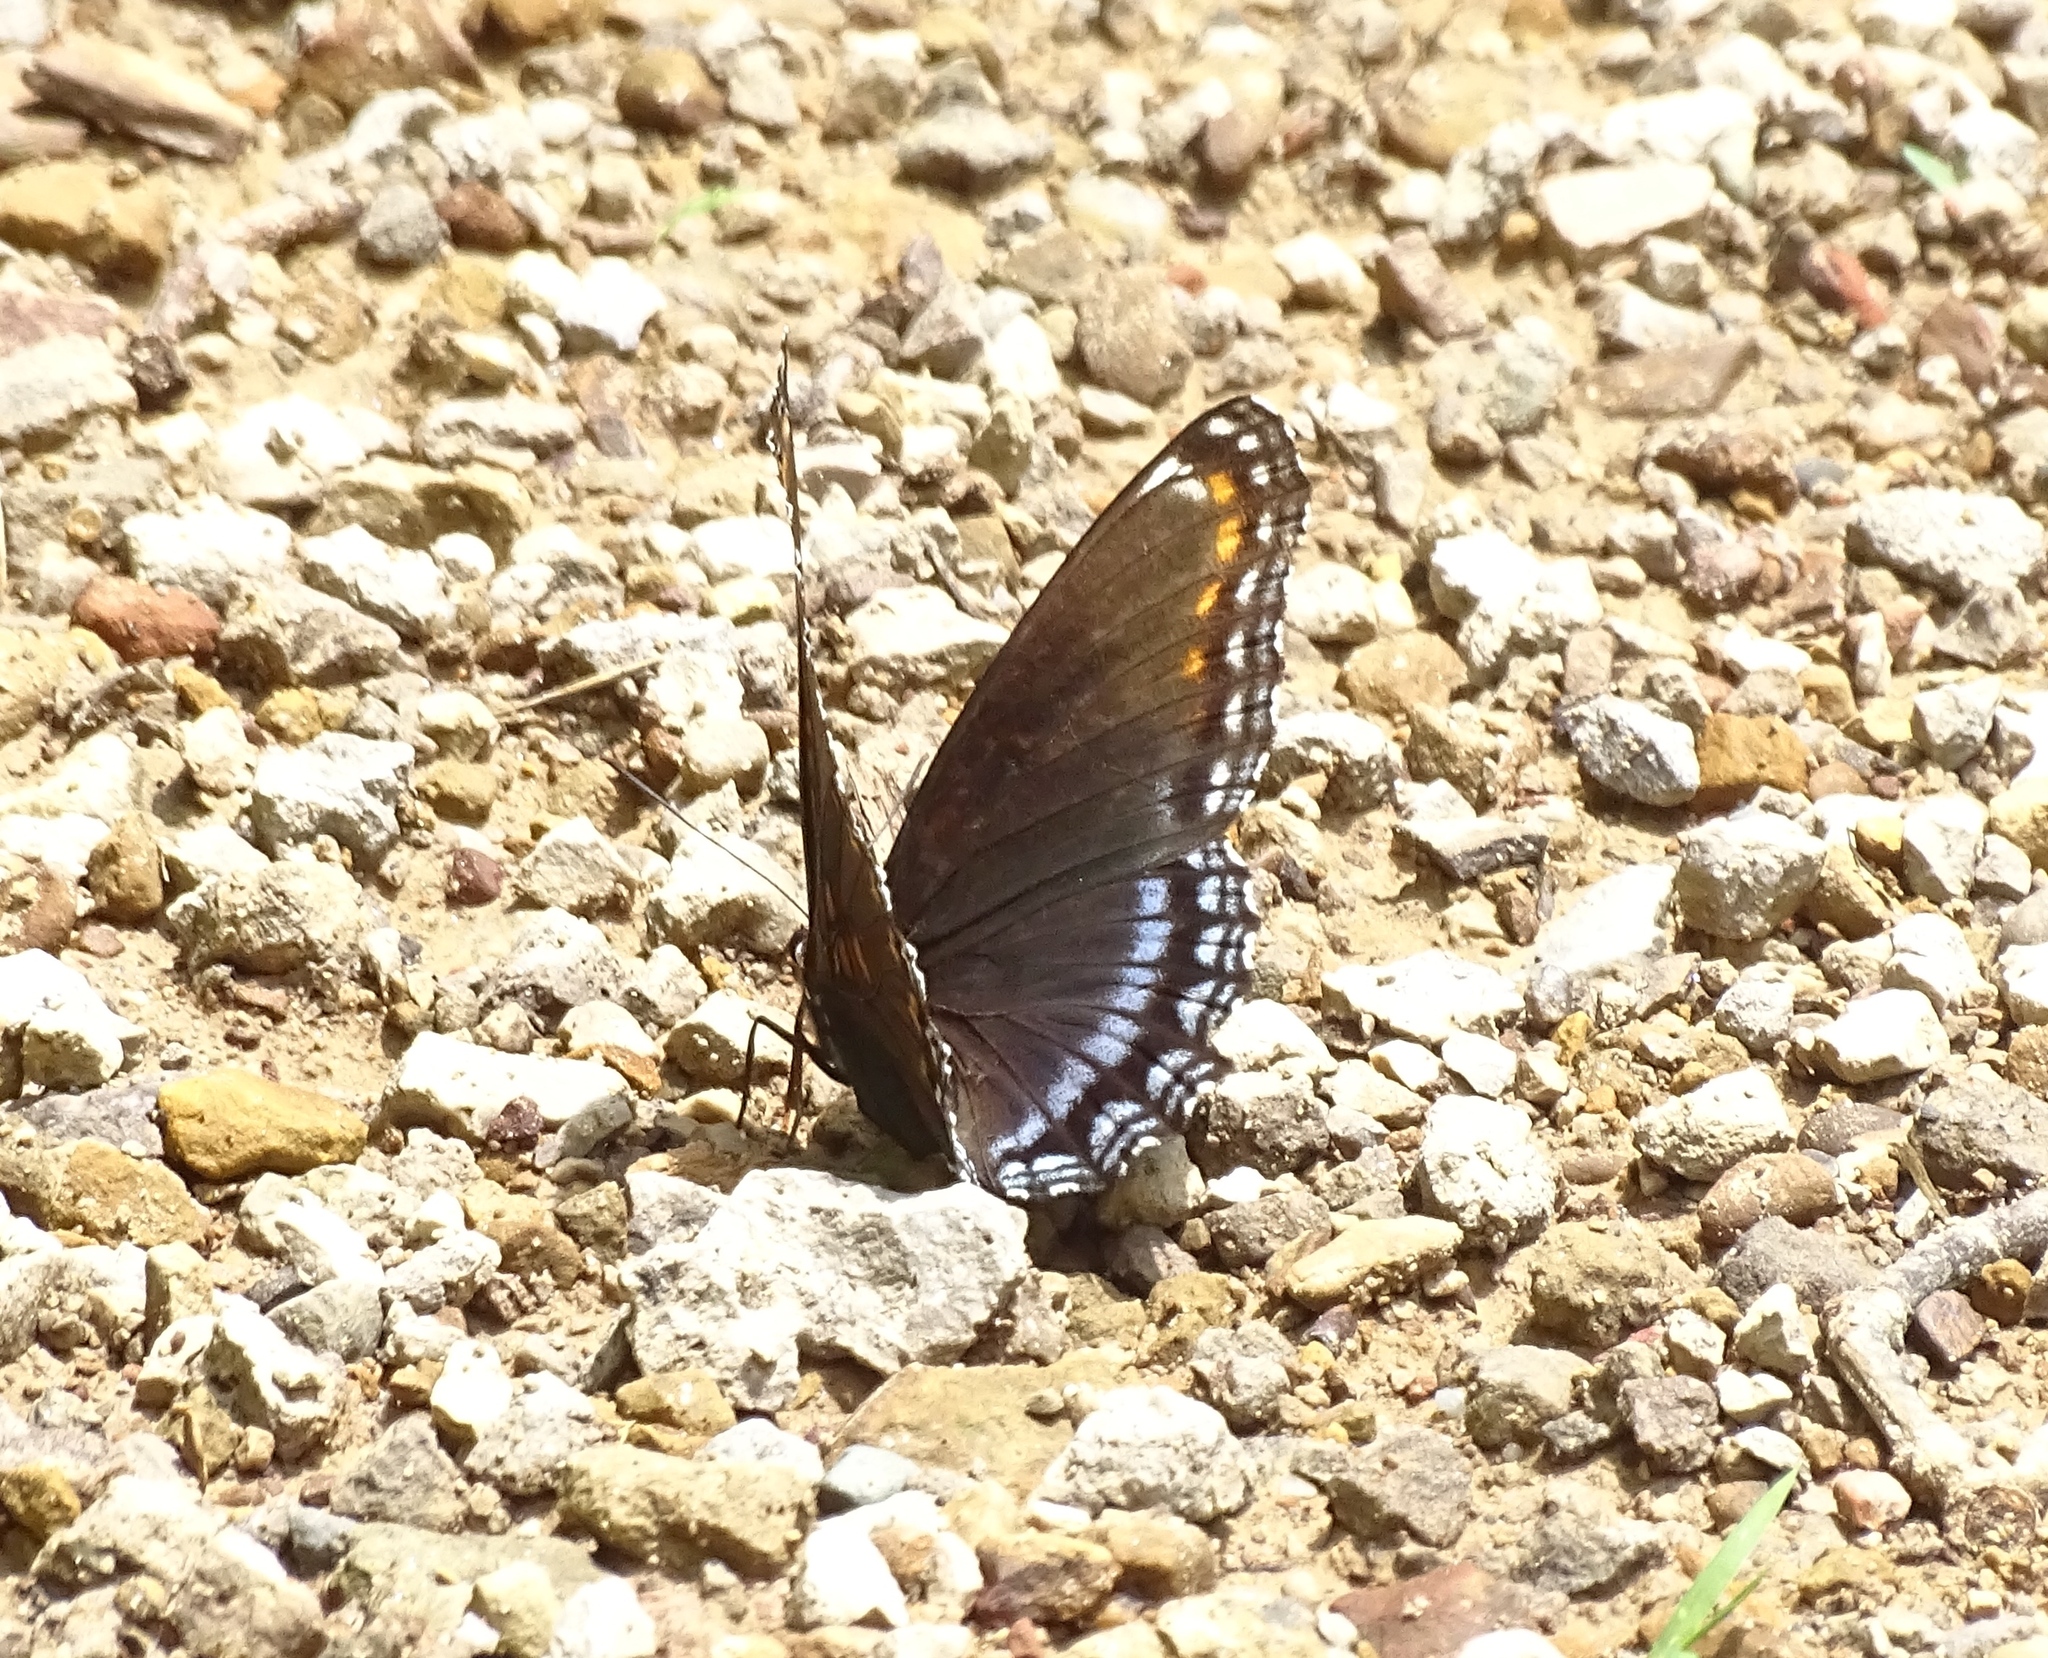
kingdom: Animalia
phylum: Arthropoda
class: Insecta
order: Lepidoptera
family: Nymphalidae
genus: Limenitis
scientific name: Limenitis astyanax
